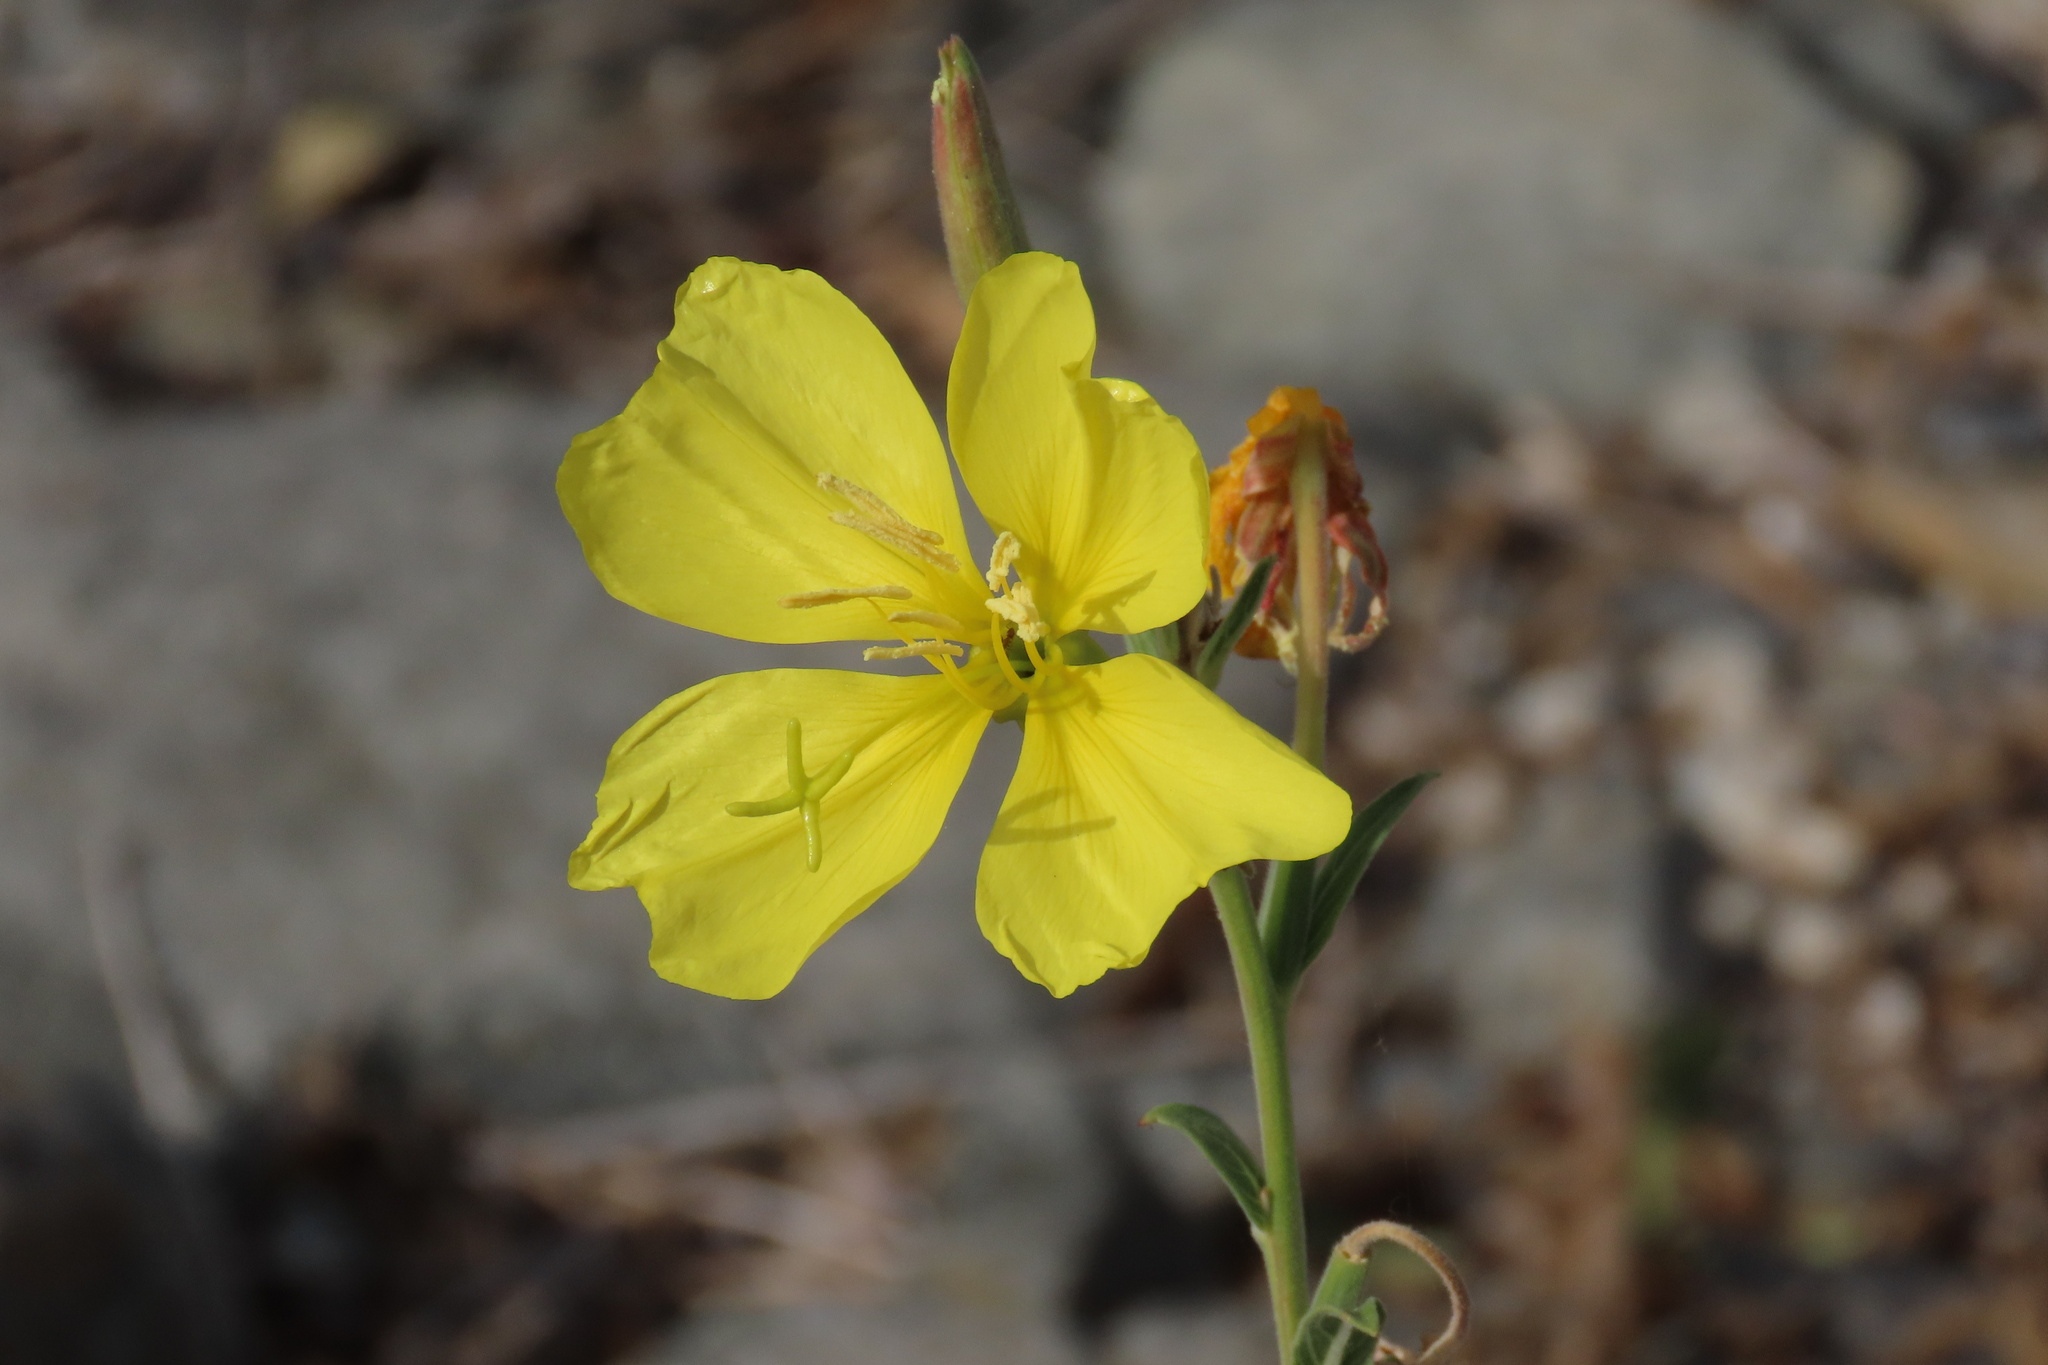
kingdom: Plantae
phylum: Tracheophyta
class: Magnoliopsida
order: Myrtales
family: Onagraceae
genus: Oenothera
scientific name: Oenothera elata
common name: Hooker's evening-primrose
